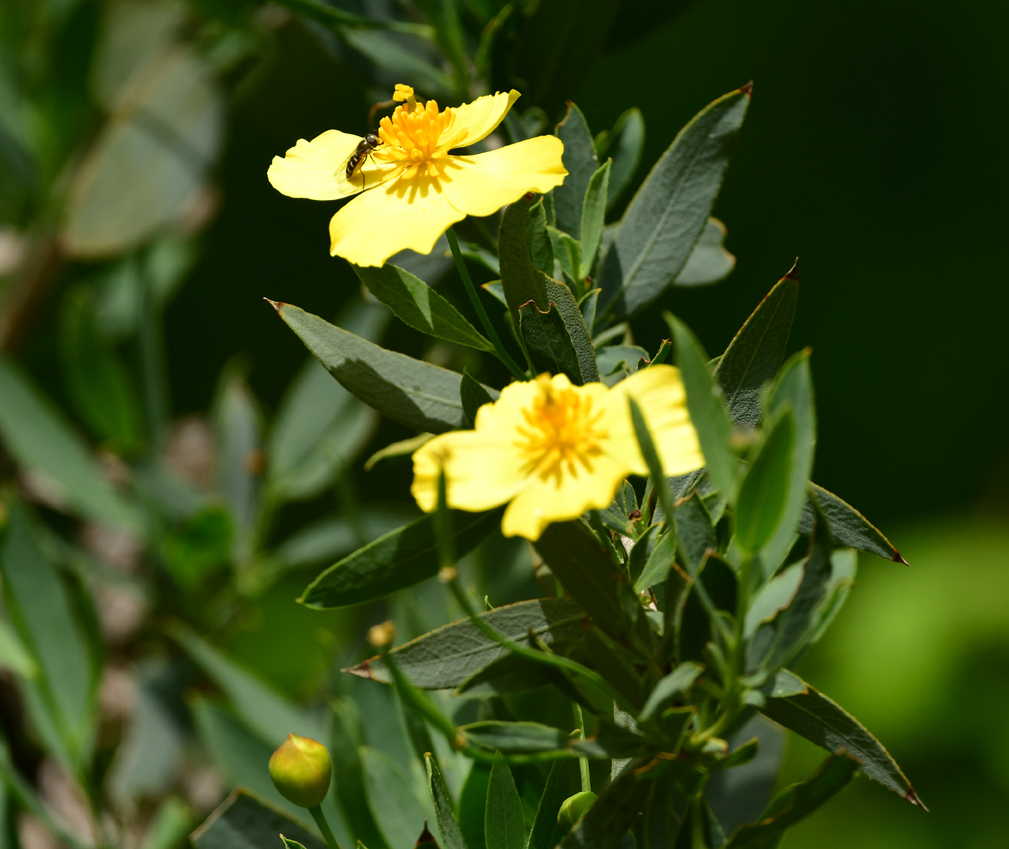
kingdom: Plantae
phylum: Tracheophyta
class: Magnoliopsida
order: Ranunculales
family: Papaveraceae
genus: Dendromecon
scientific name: Dendromecon rigida
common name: Tree poppy
